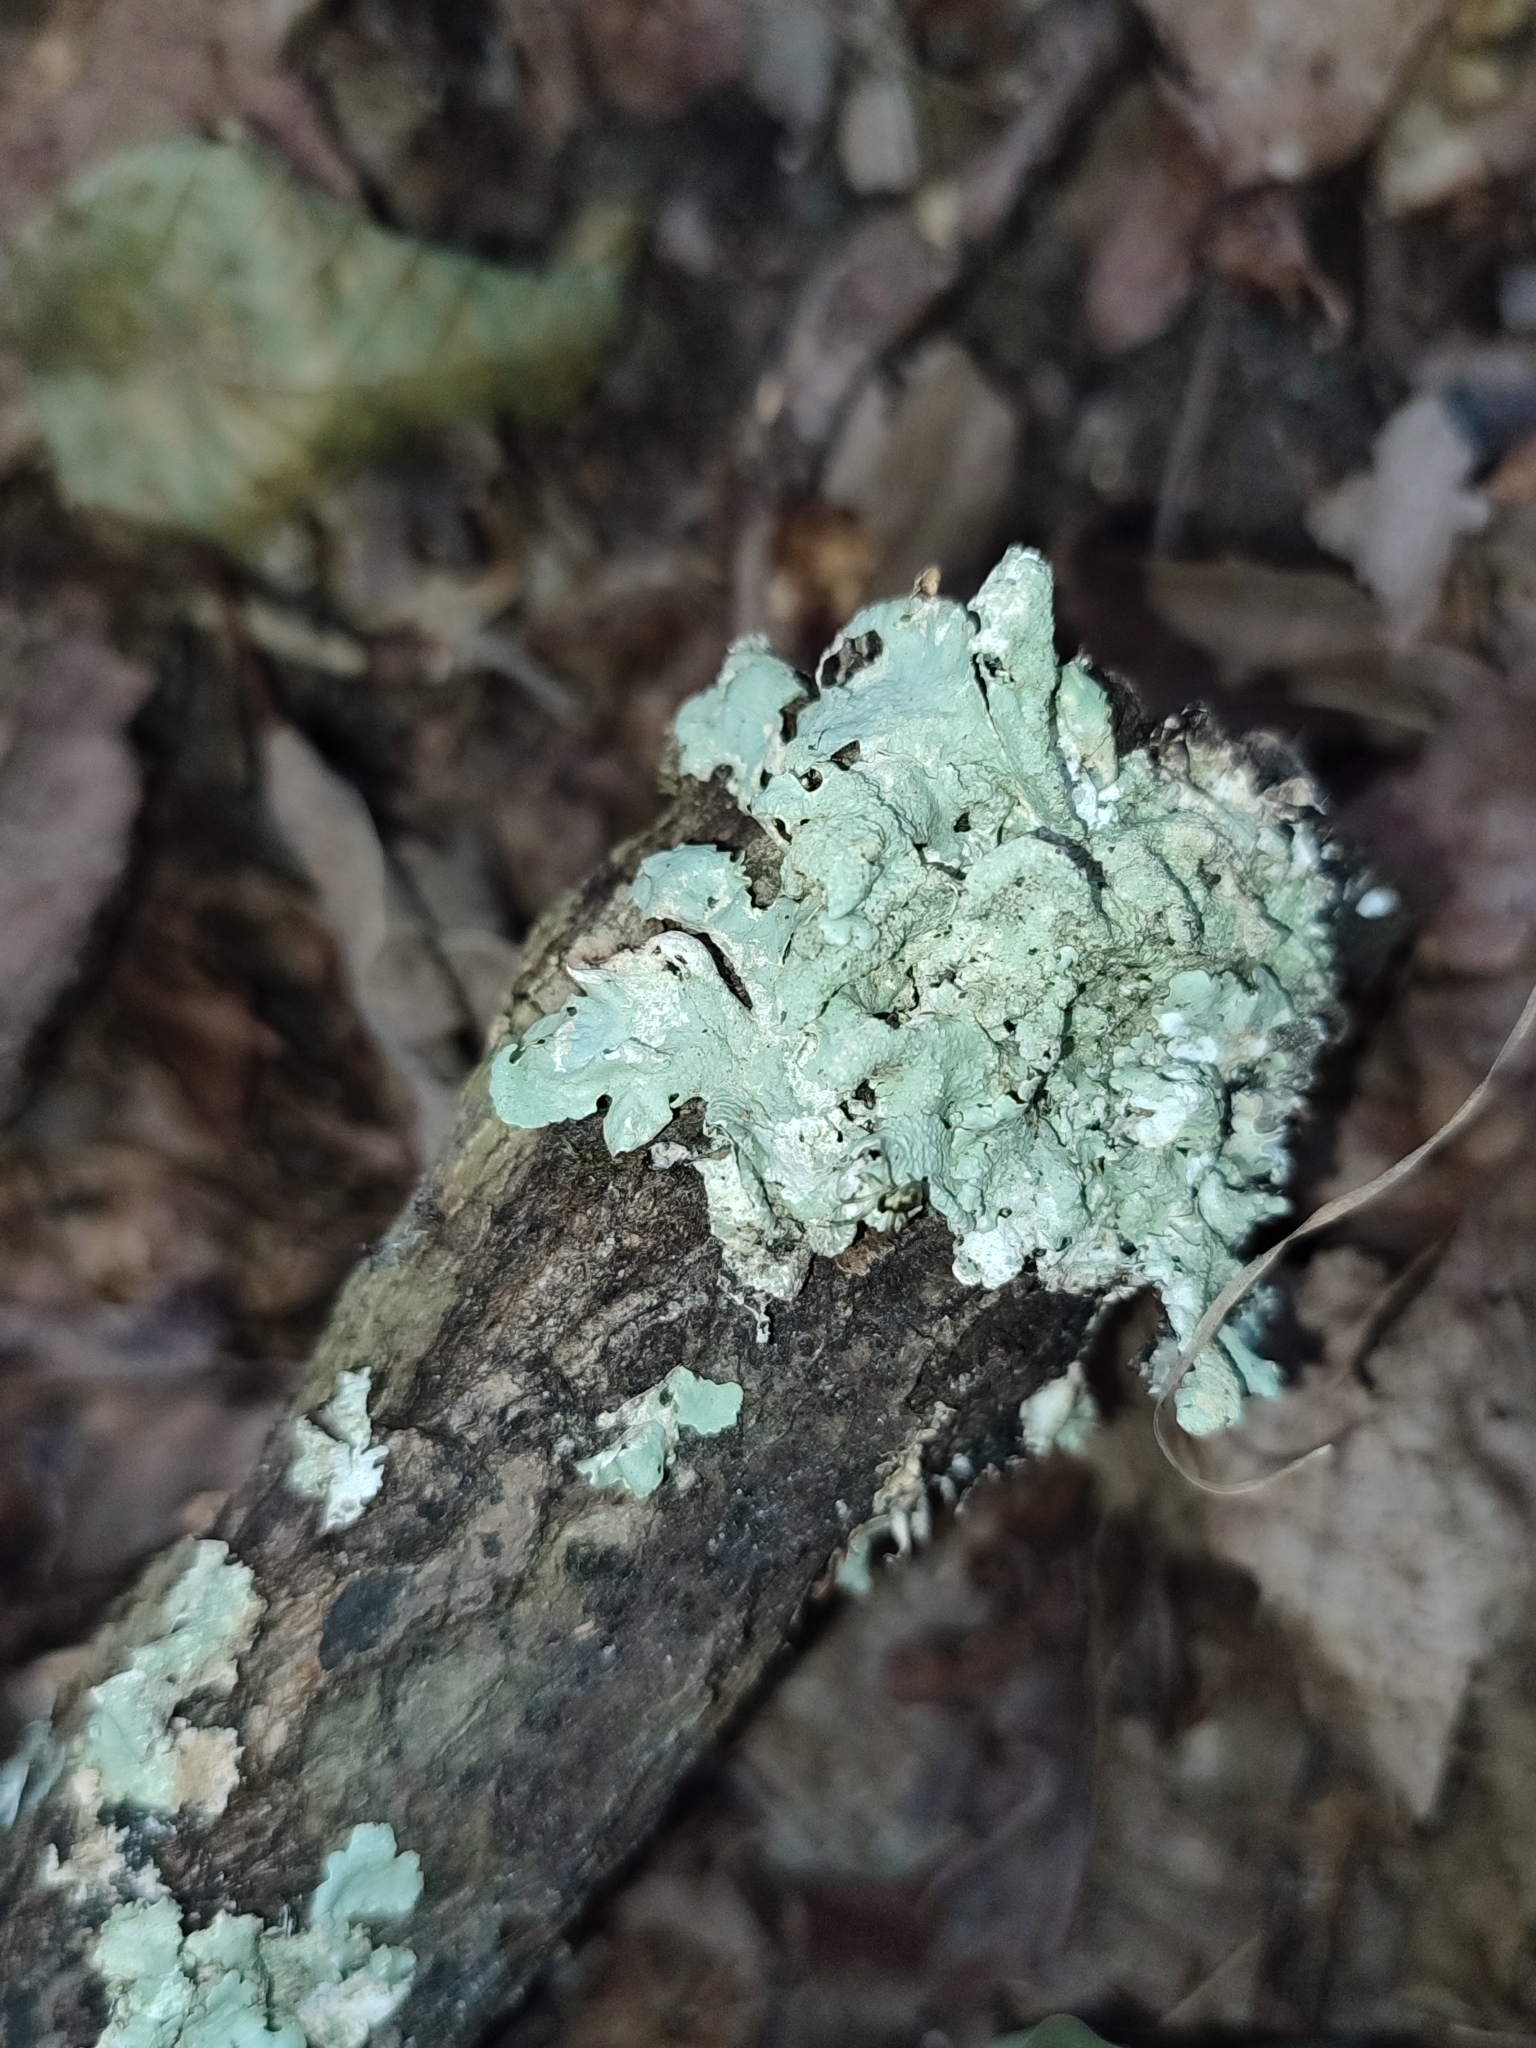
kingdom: Fungi
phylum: Ascomycota
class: Lecanoromycetes
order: Lecanorales
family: Parmeliaceae
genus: Flavoparmelia
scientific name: Flavoparmelia caperata
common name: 40-mile per hour lichen
